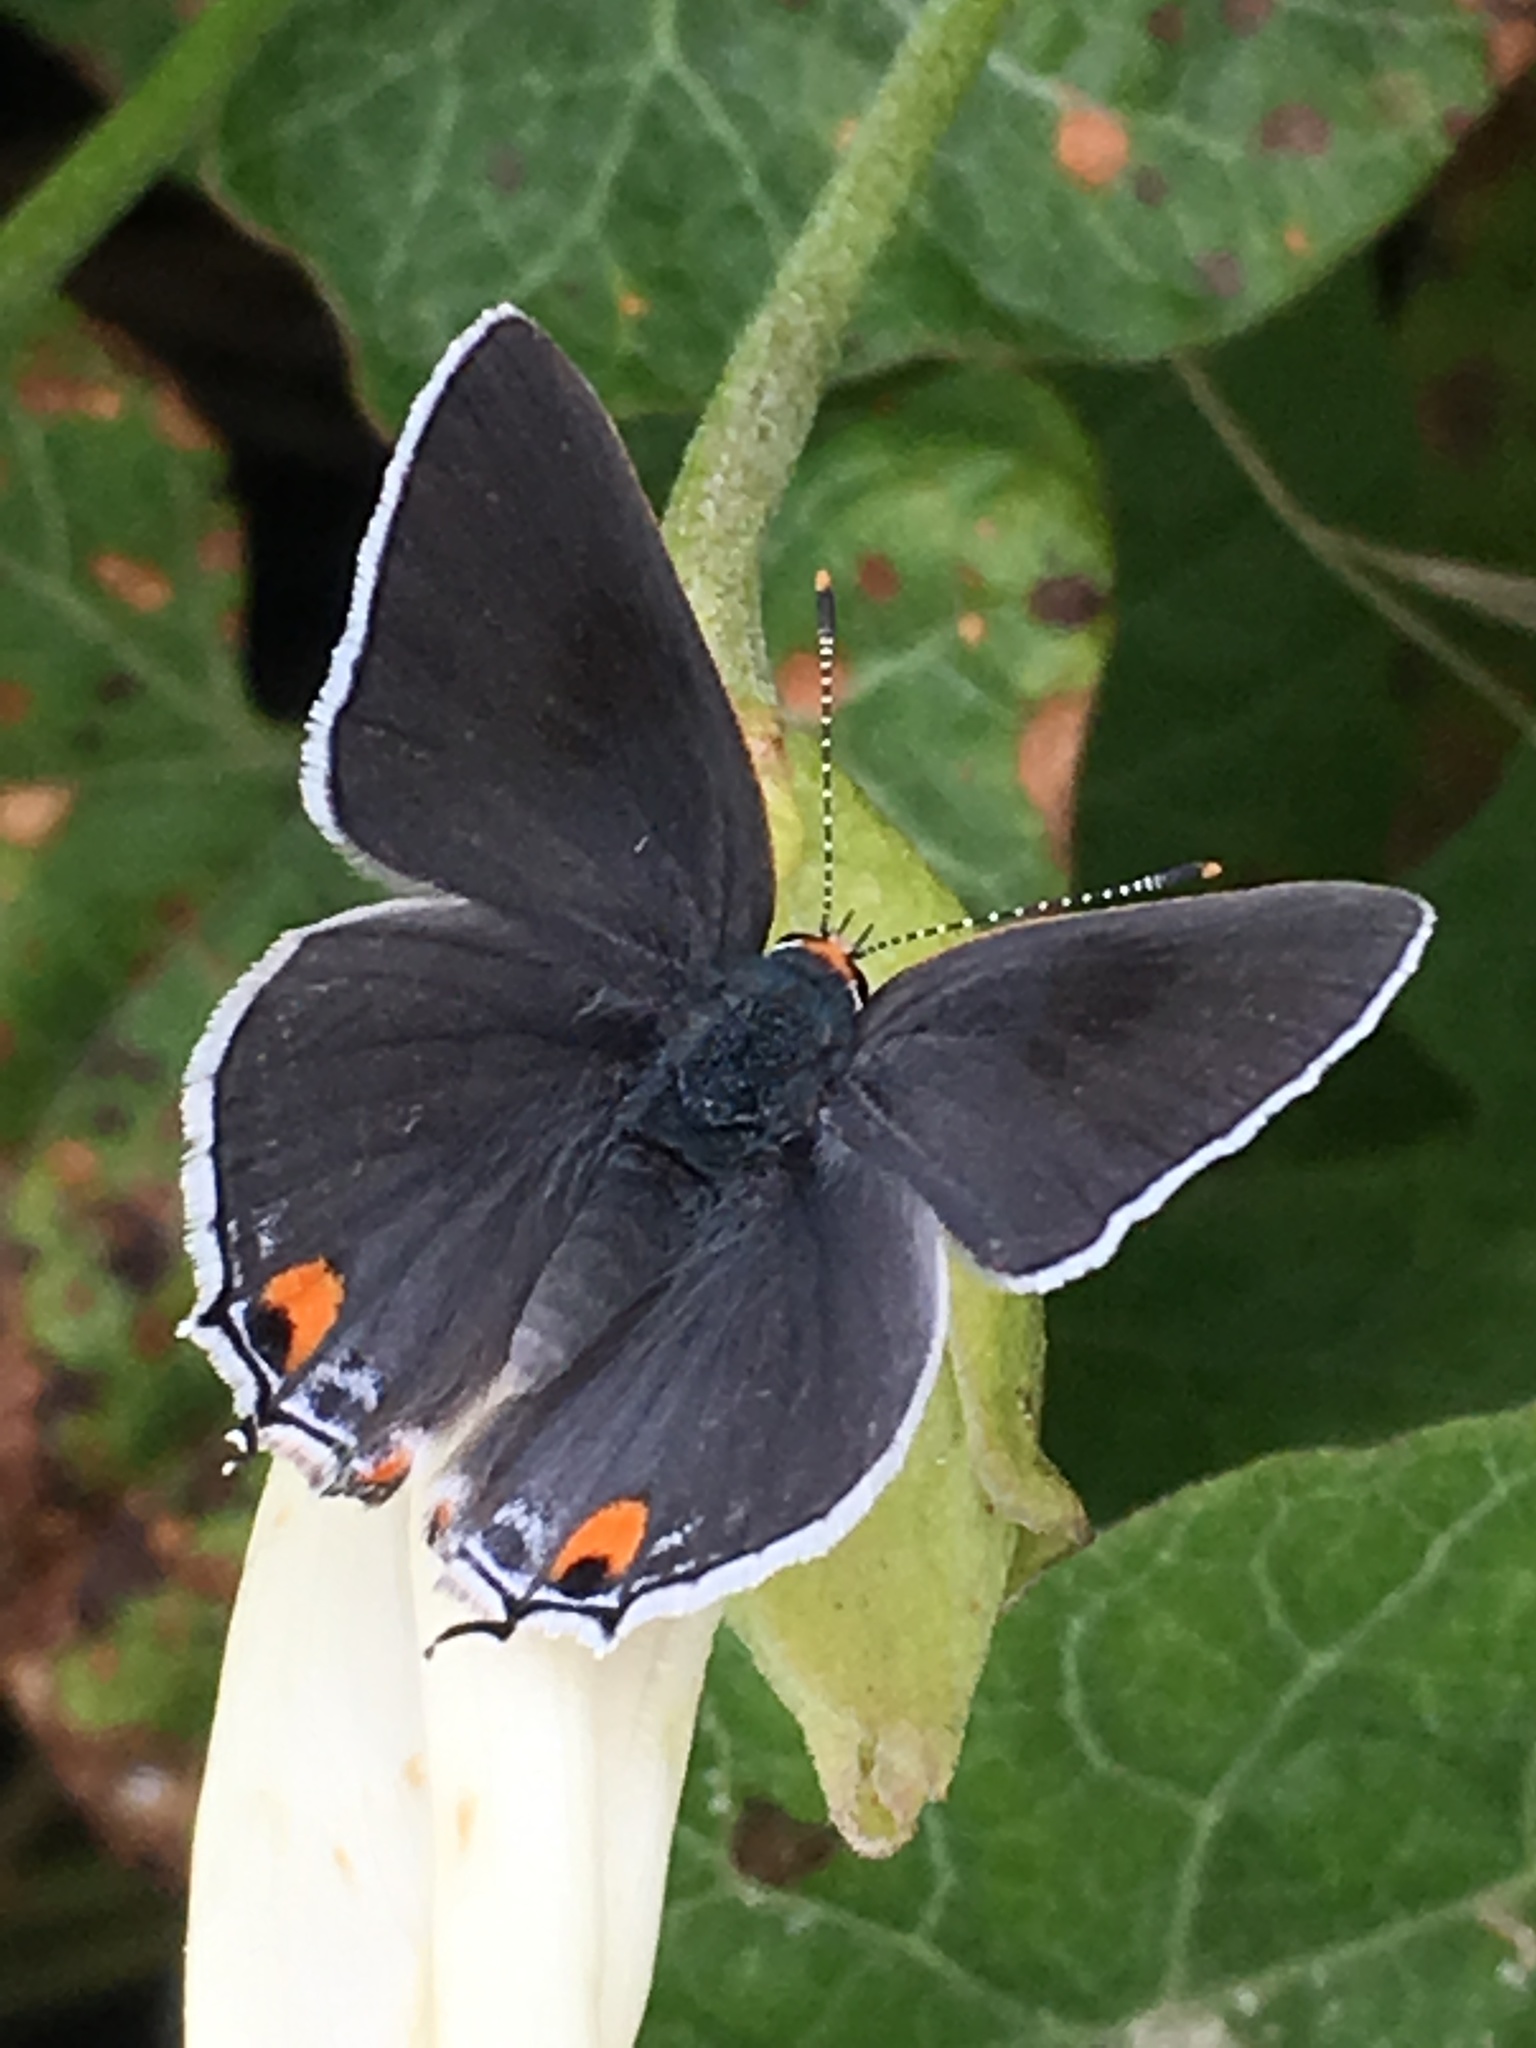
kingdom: Animalia
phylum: Arthropoda
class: Insecta
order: Lepidoptera
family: Lycaenidae
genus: Strymon
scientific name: Strymon melinus
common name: Gray hairstreak
